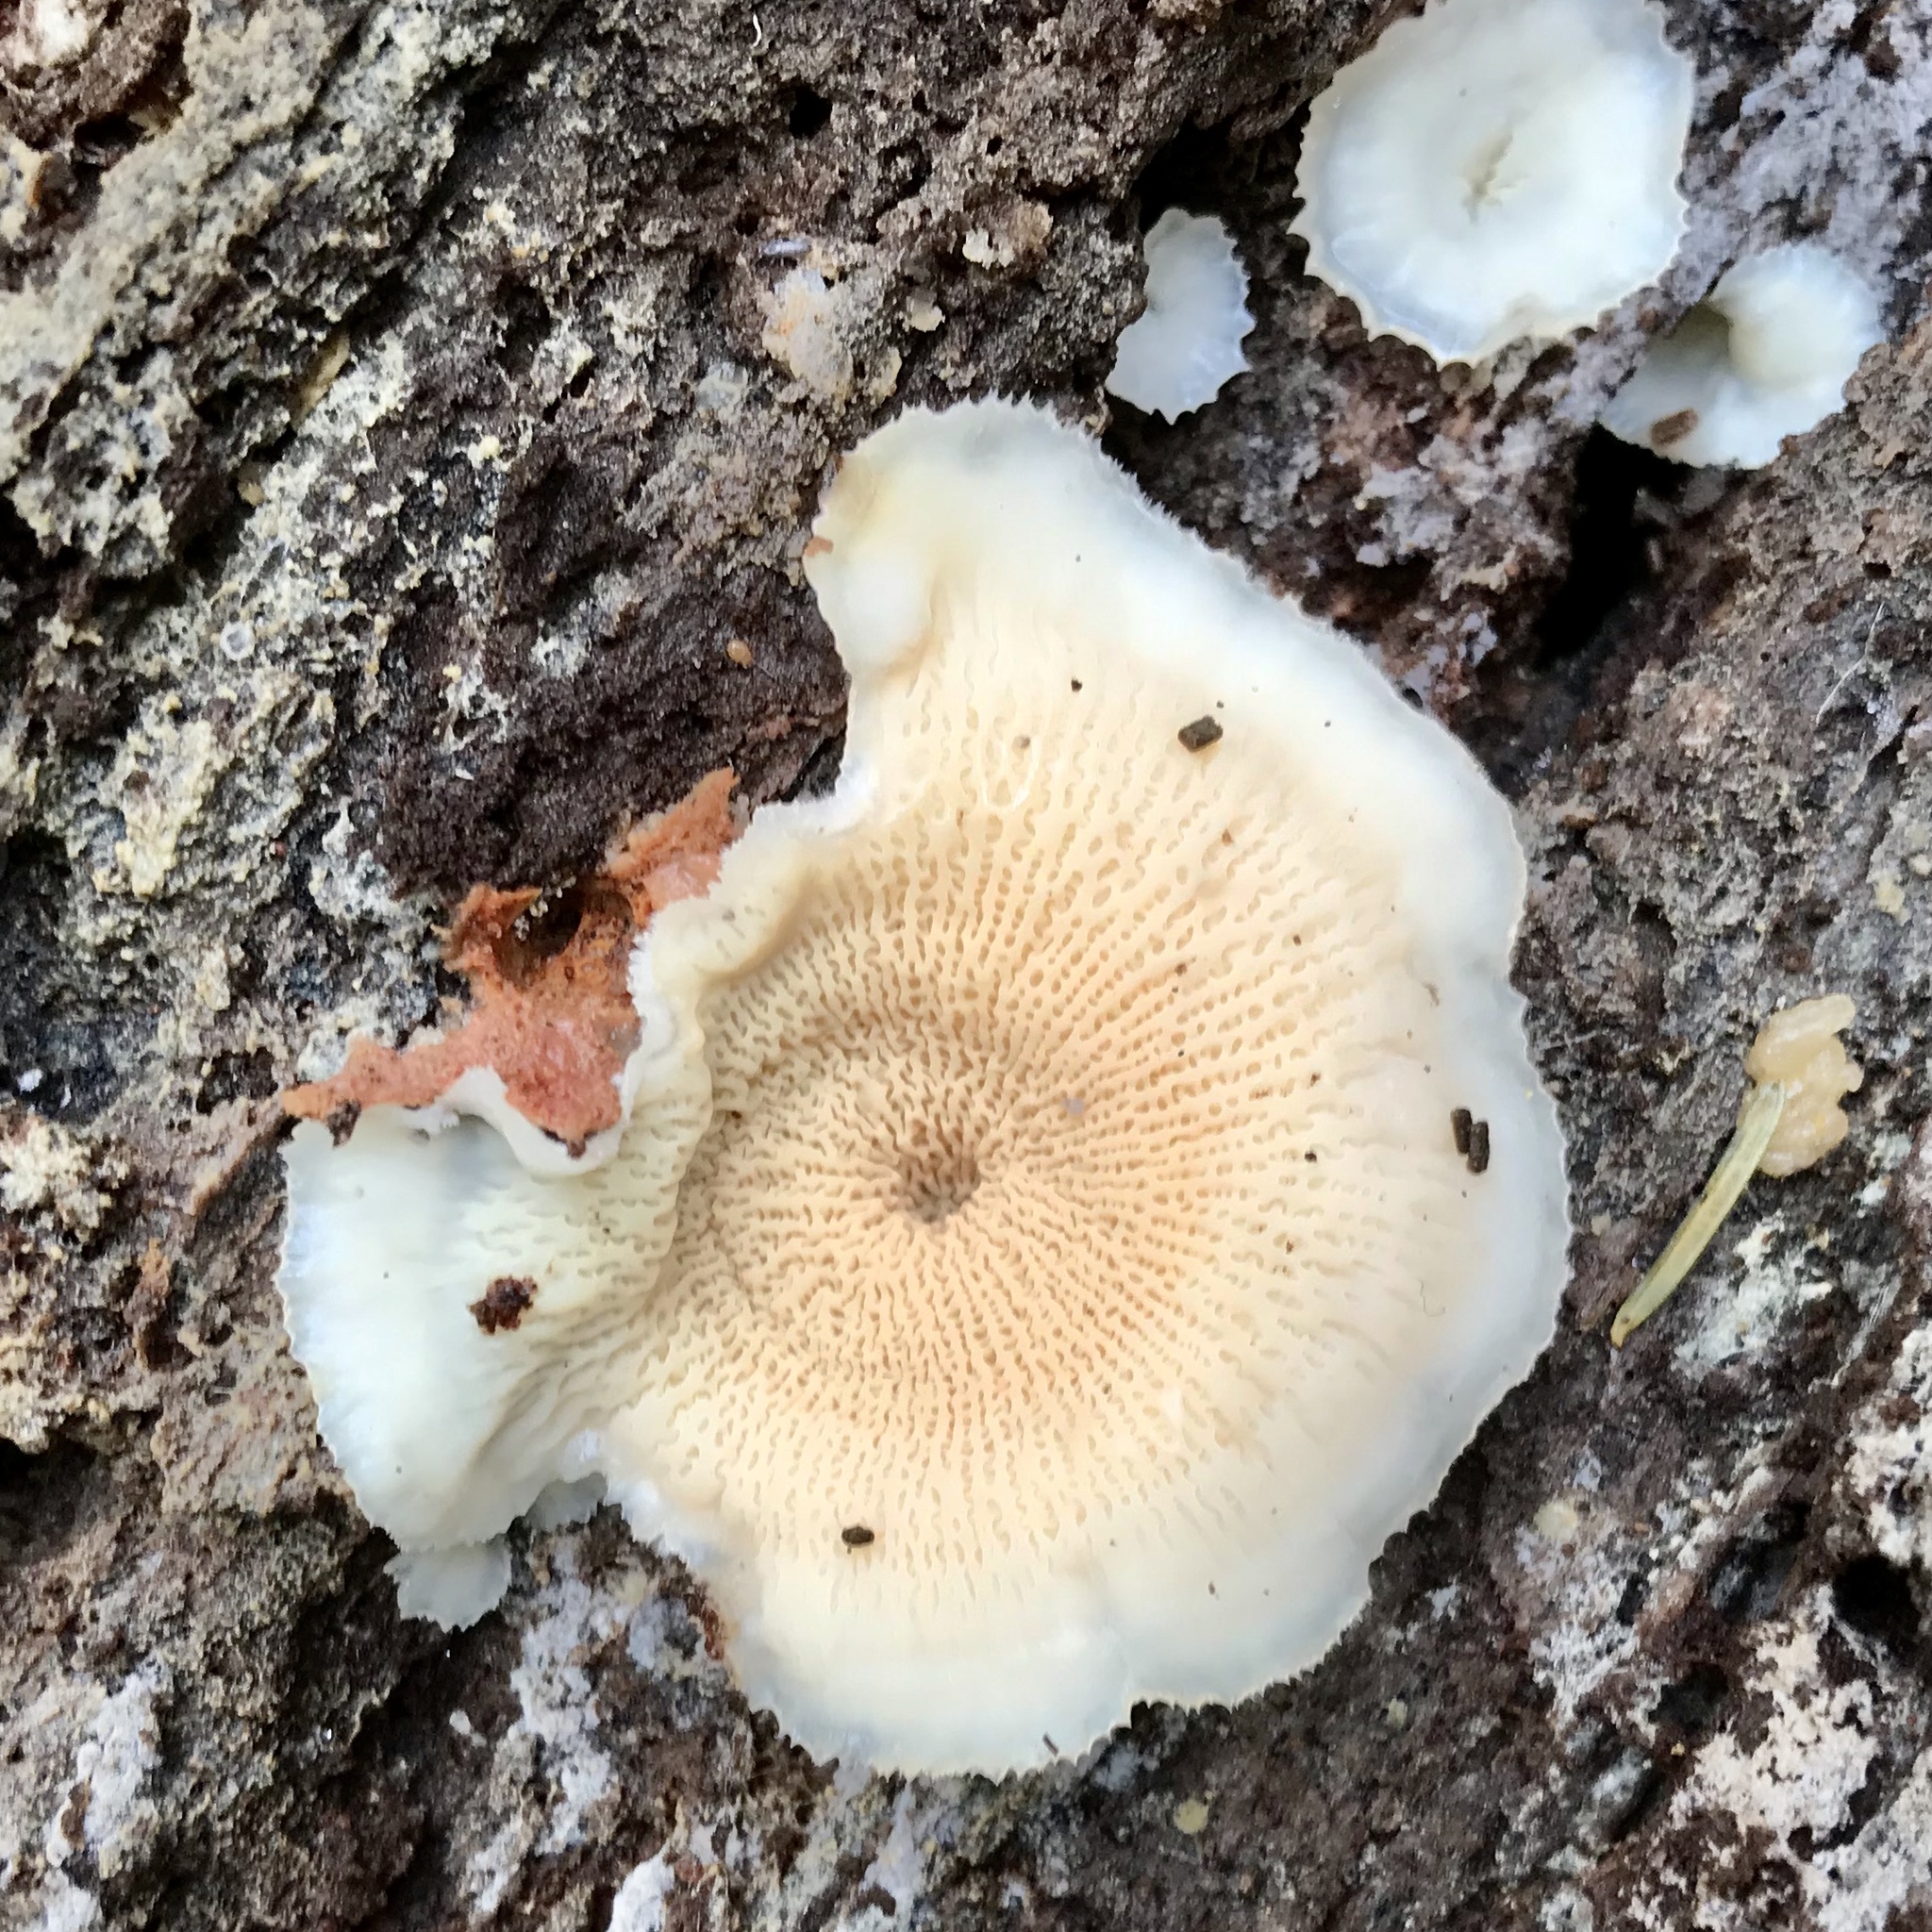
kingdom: Fungi
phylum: Basidiomycota
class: Agaricomycetes
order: Polyporales
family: Meruliaceae
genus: Phlebia
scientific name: Phlebia tremellosa
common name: Jelly rot
